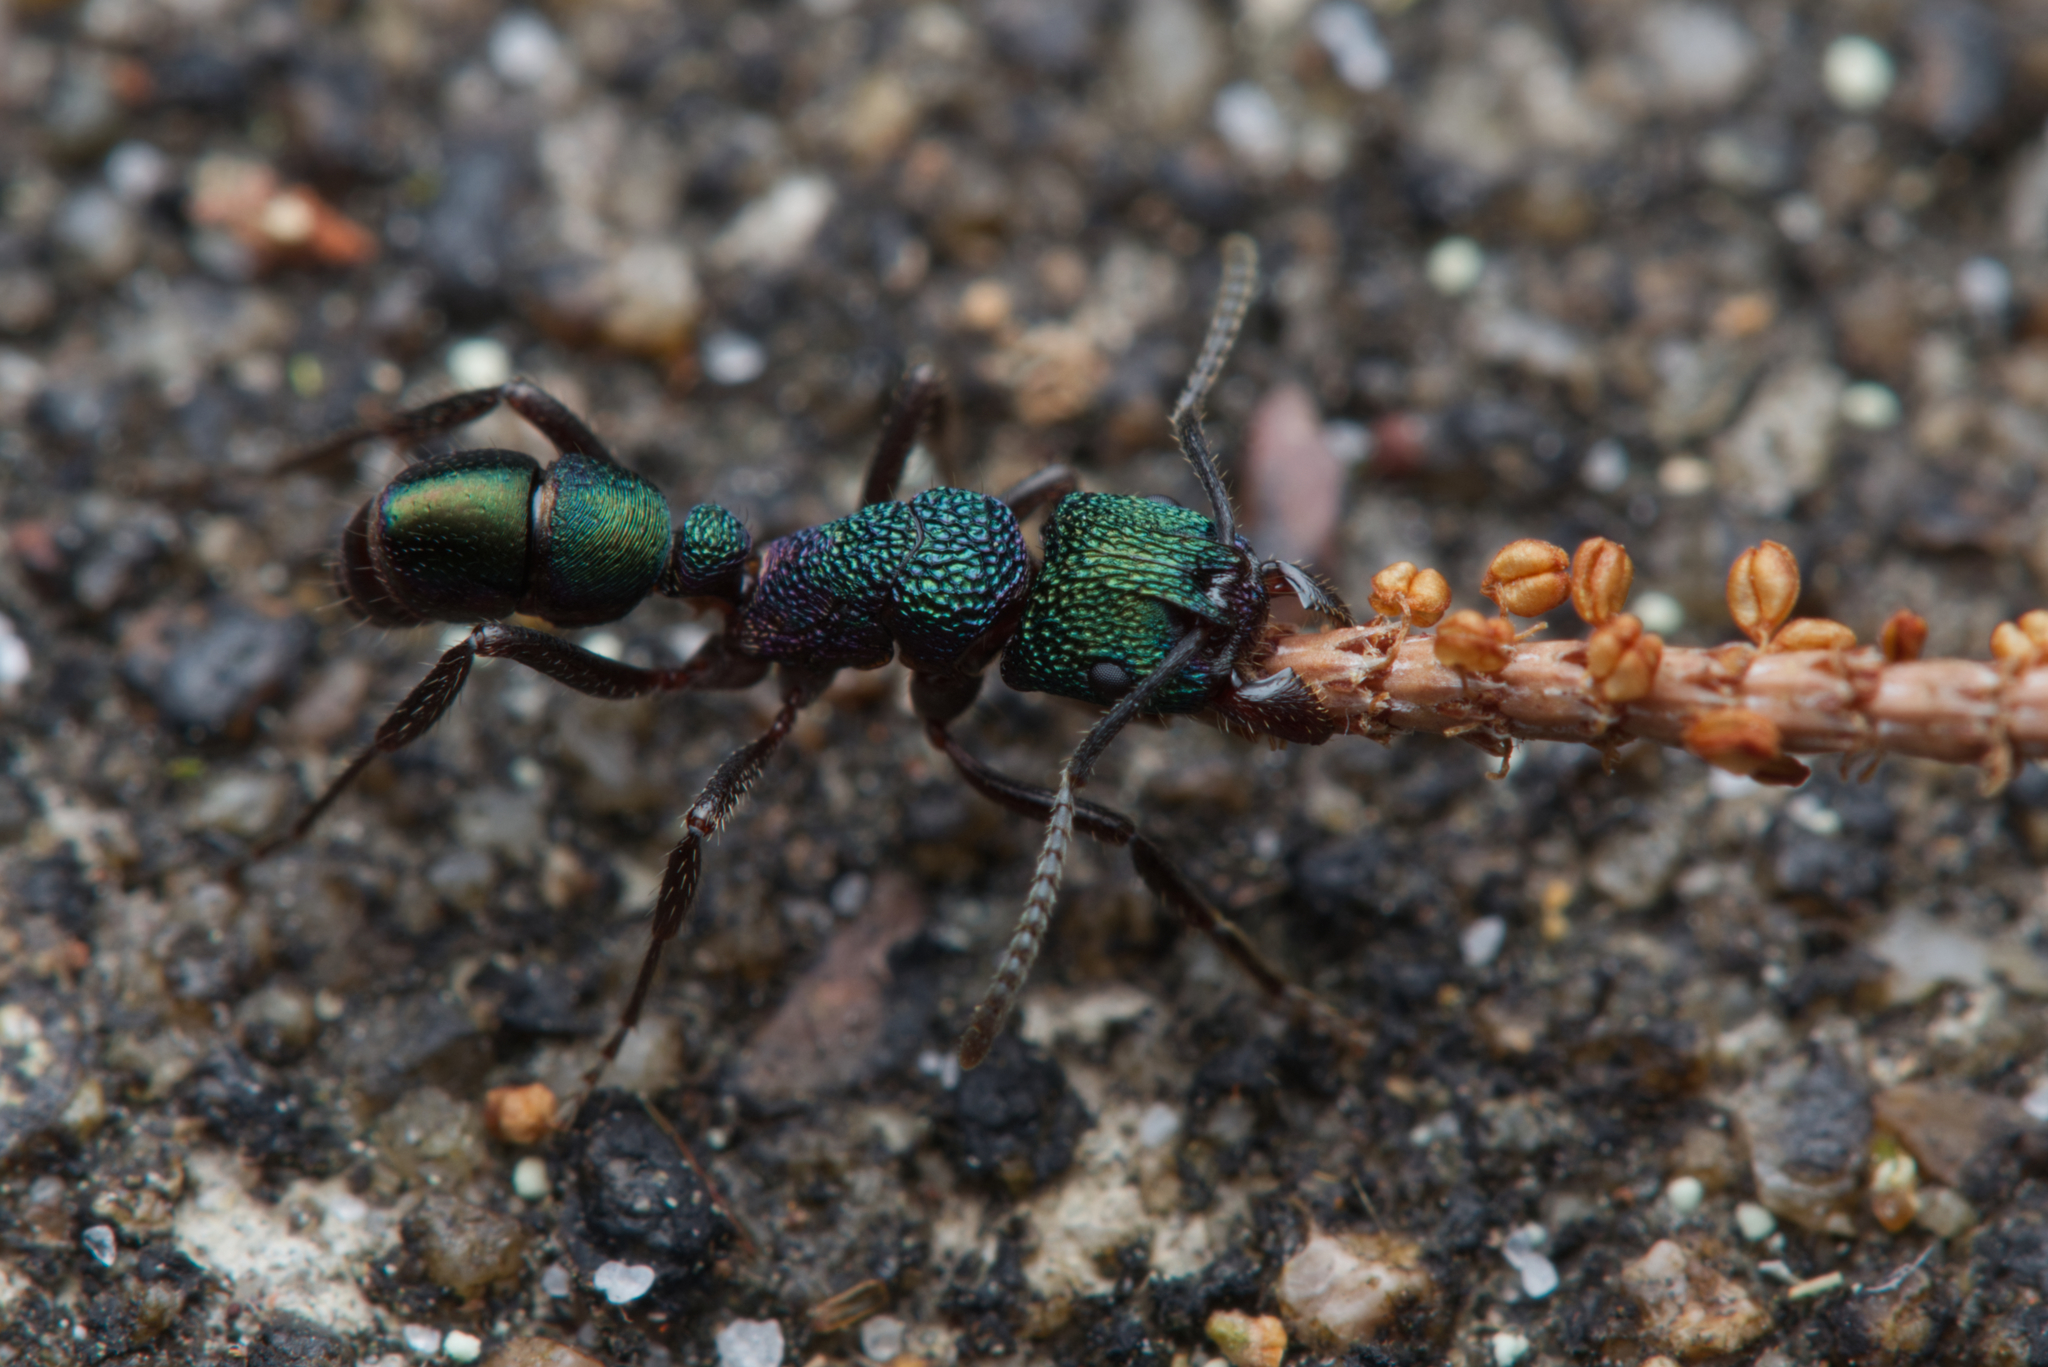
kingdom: Animalia
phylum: Arthropoda
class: Insecta
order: Hymenoptera
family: Formicidae
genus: Rhytidoponera
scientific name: Rhytidoponera metallica
